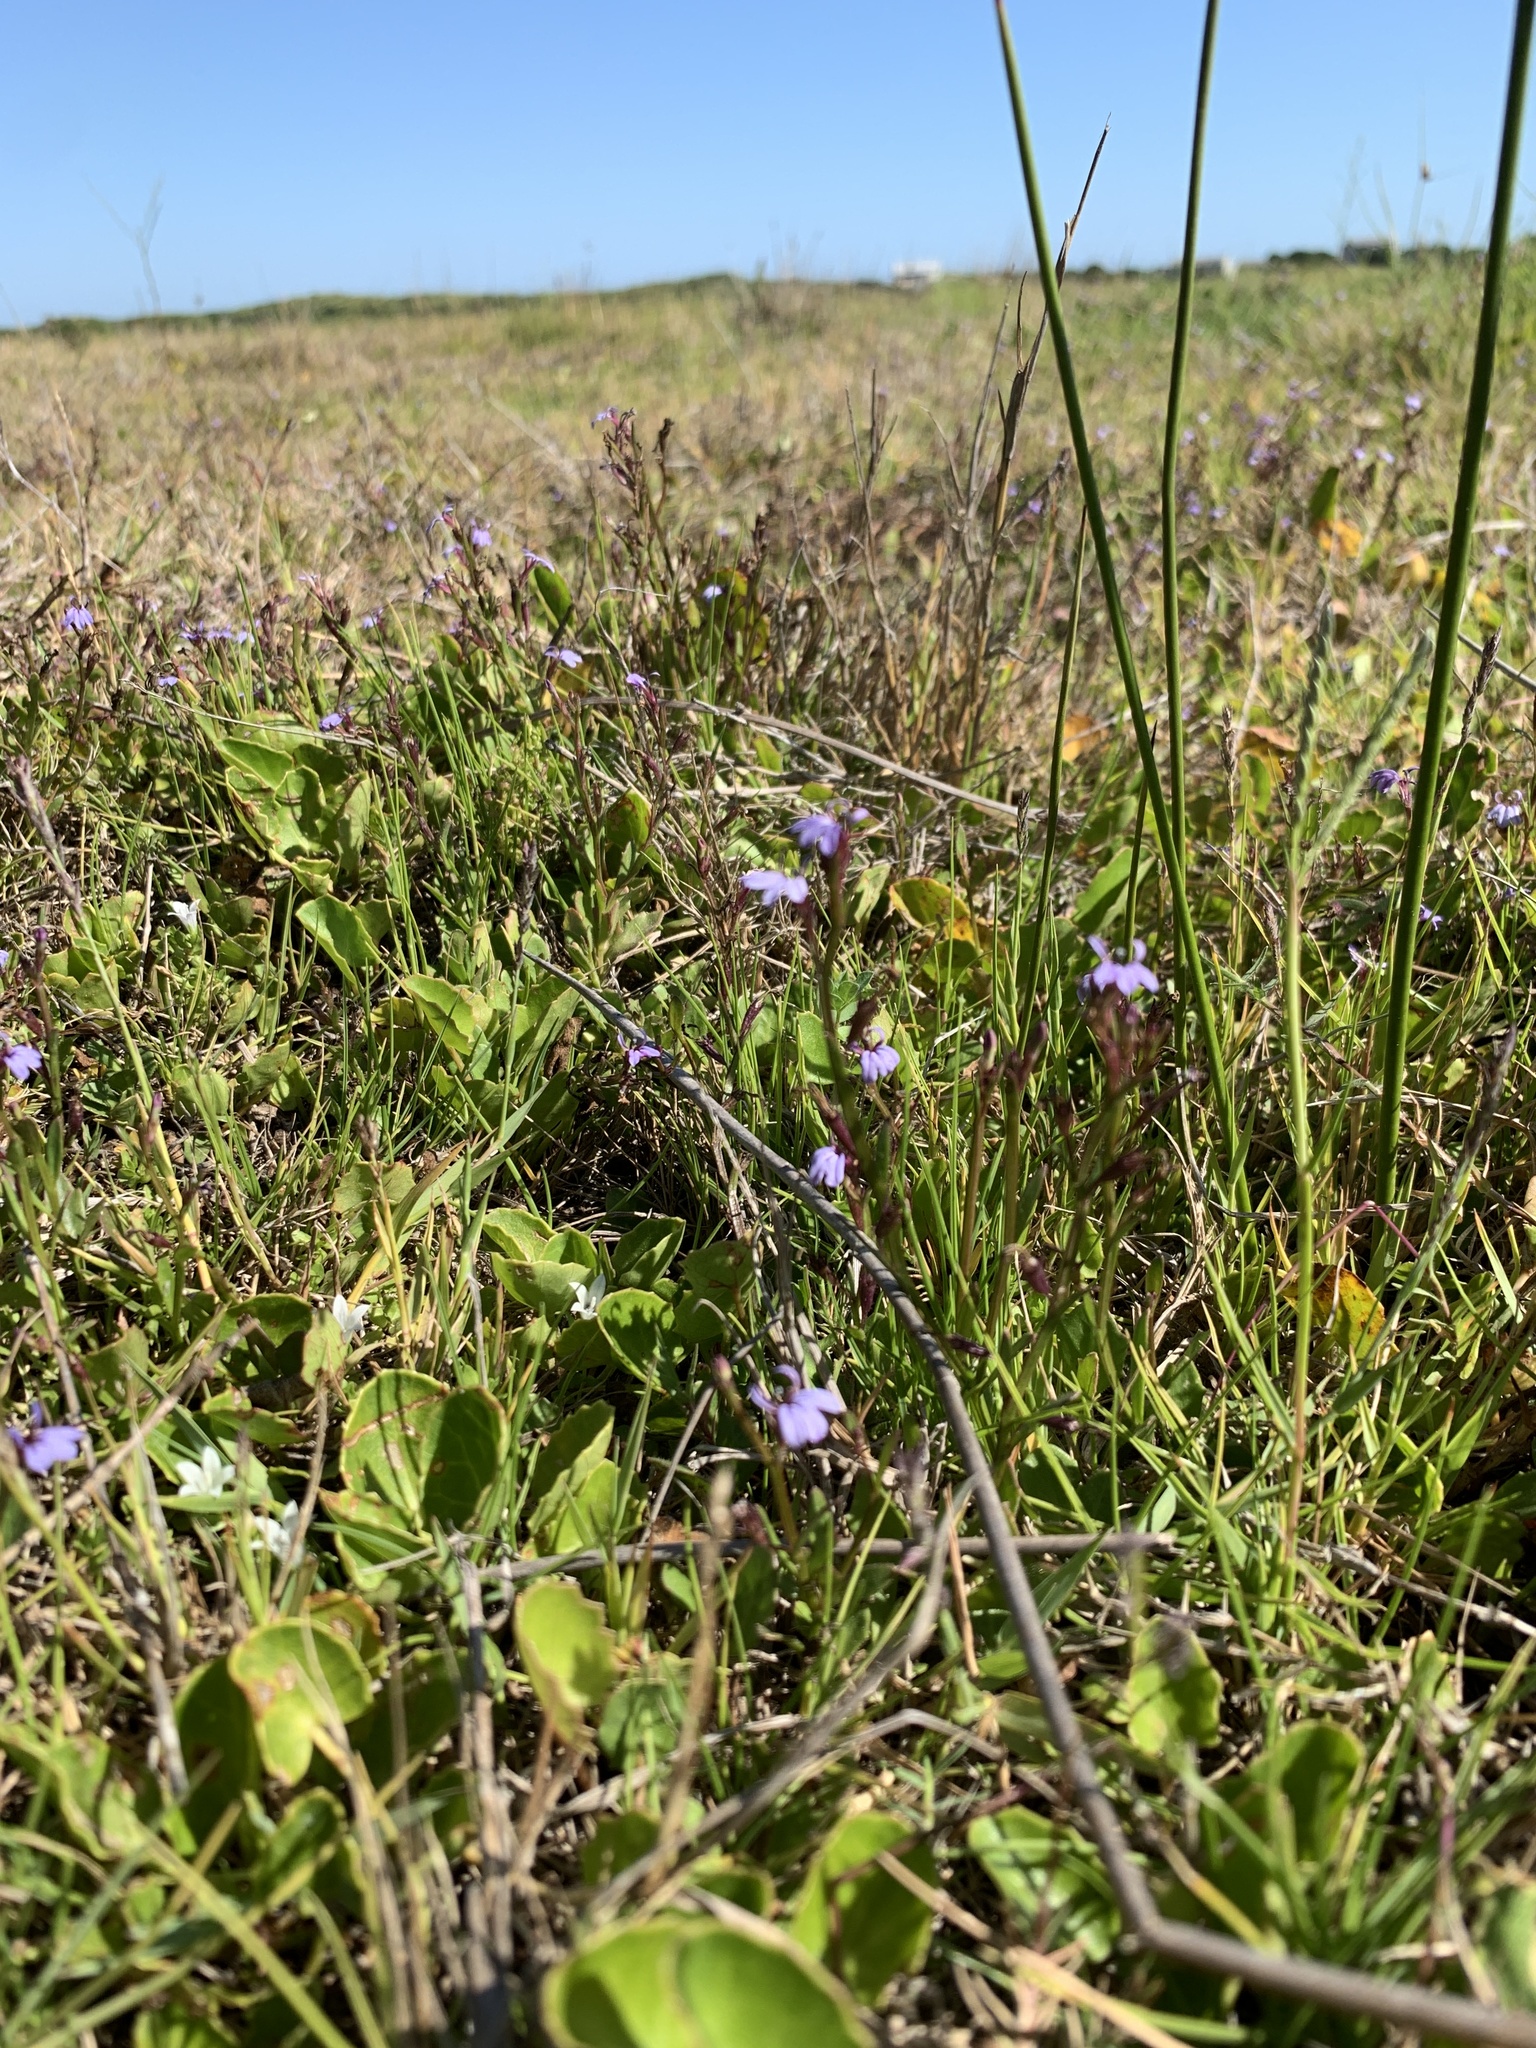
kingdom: Plantae
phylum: Tracheophyta
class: Magnoliopsida
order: Asterales
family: Campanulaceae
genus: Lobelia
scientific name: Lobelia anceps
